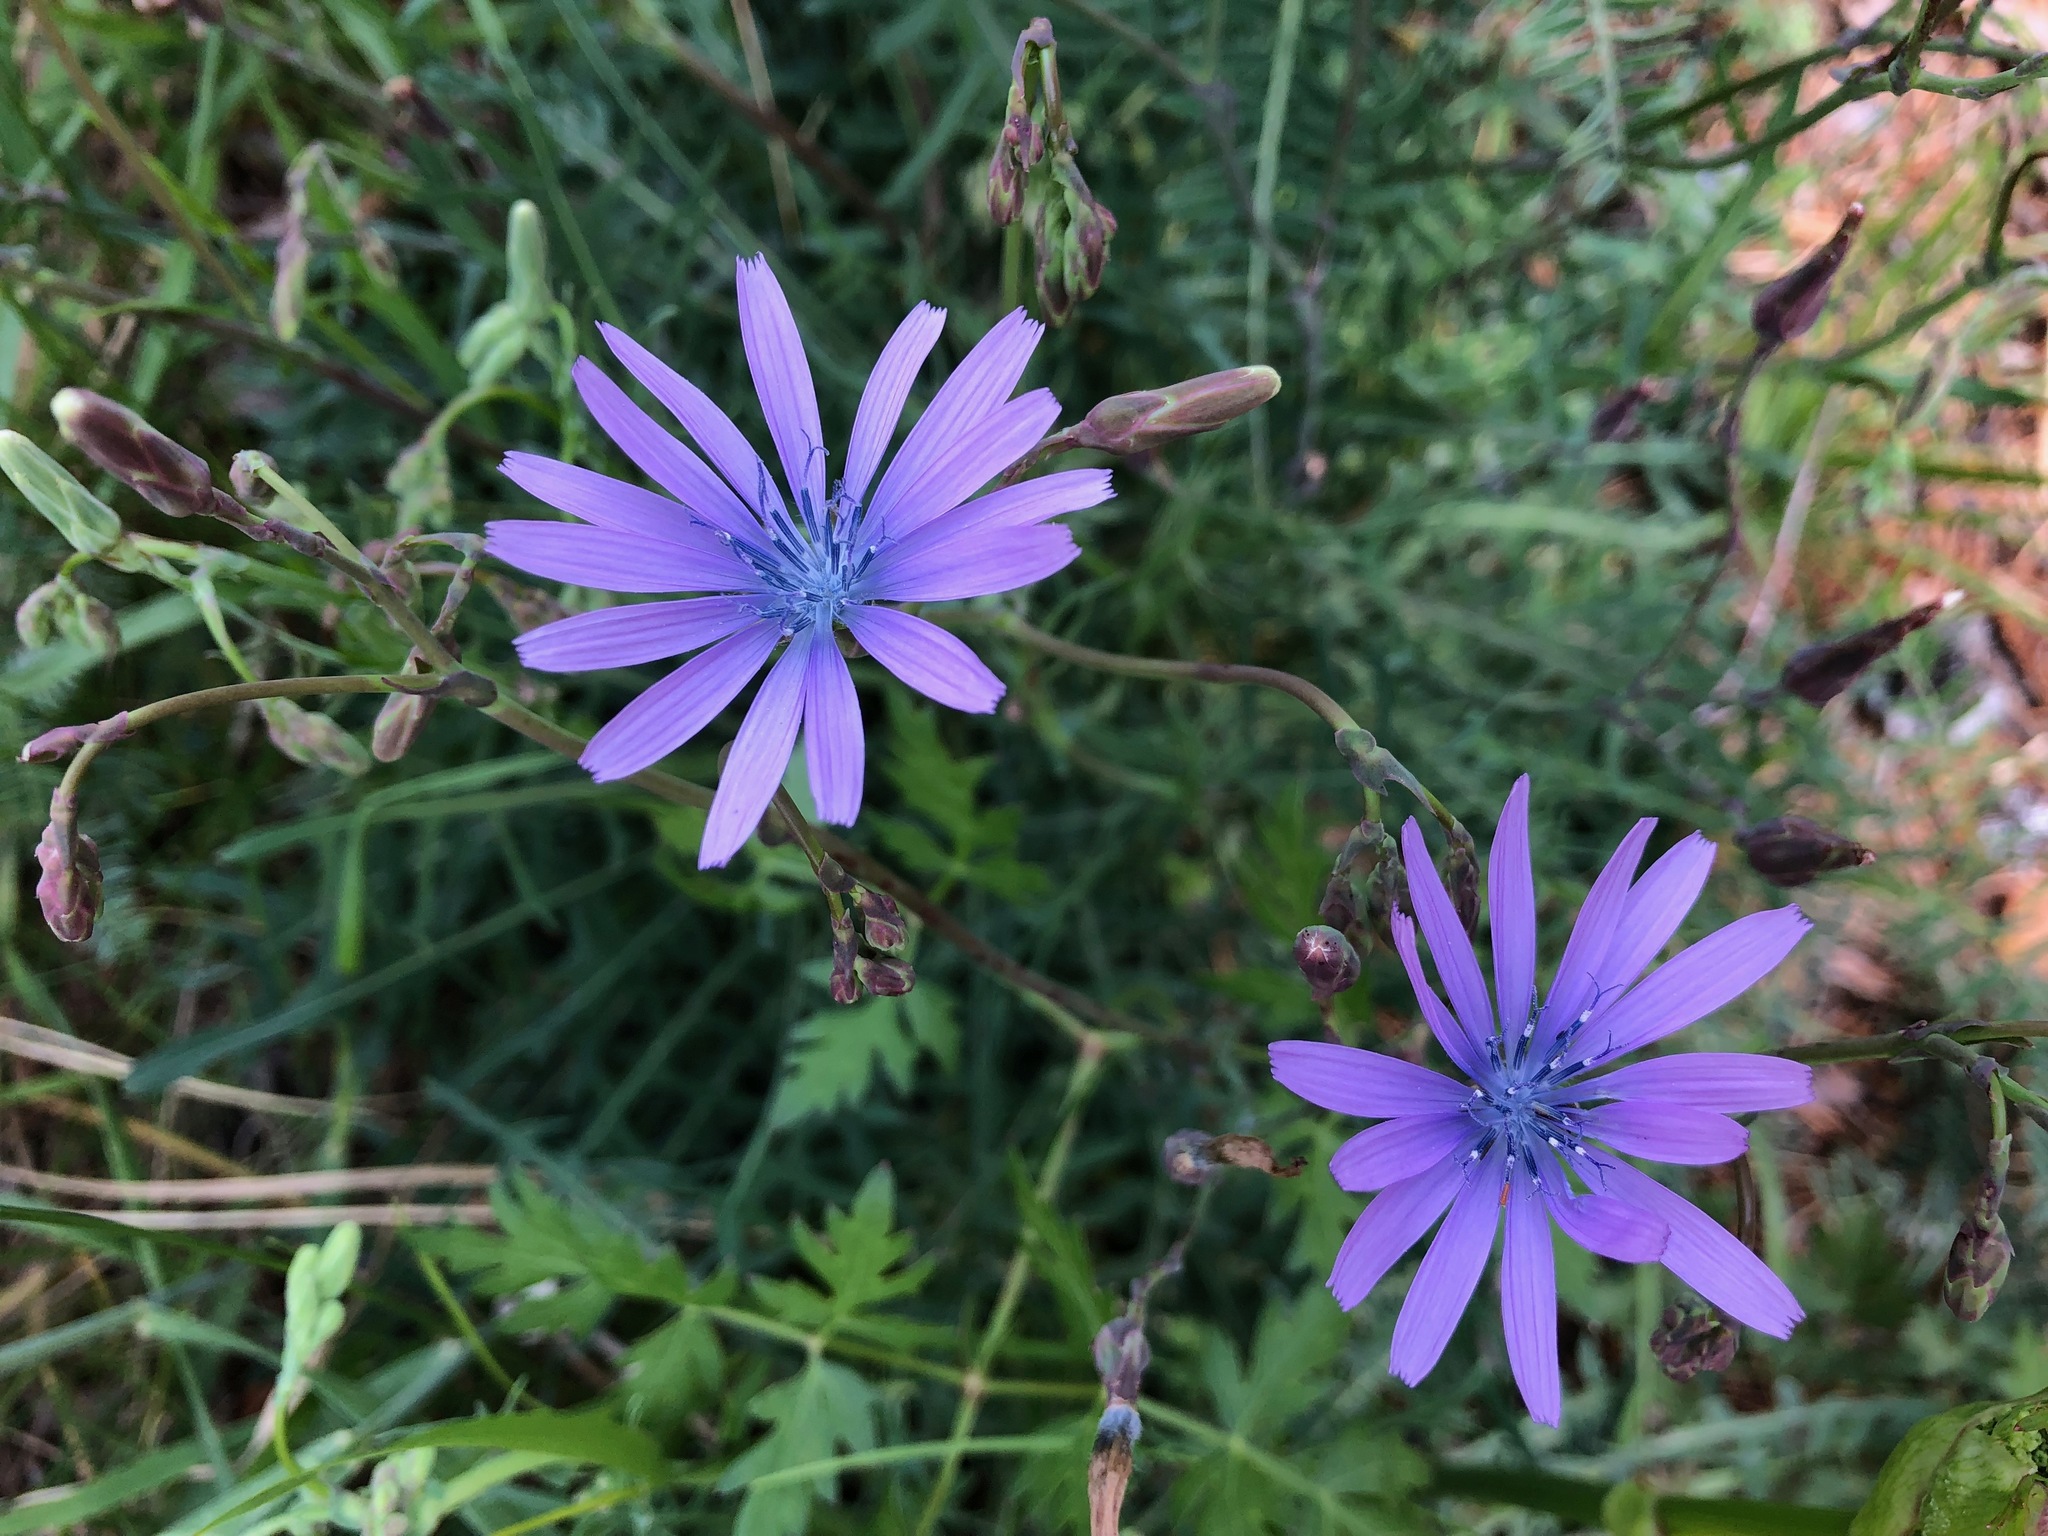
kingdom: Plantae
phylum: Tracheophyta
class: Magnoliopsida
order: Asterales
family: Asteraceae
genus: Lactuca
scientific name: Lactuca perennis
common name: Mountain lettuce
